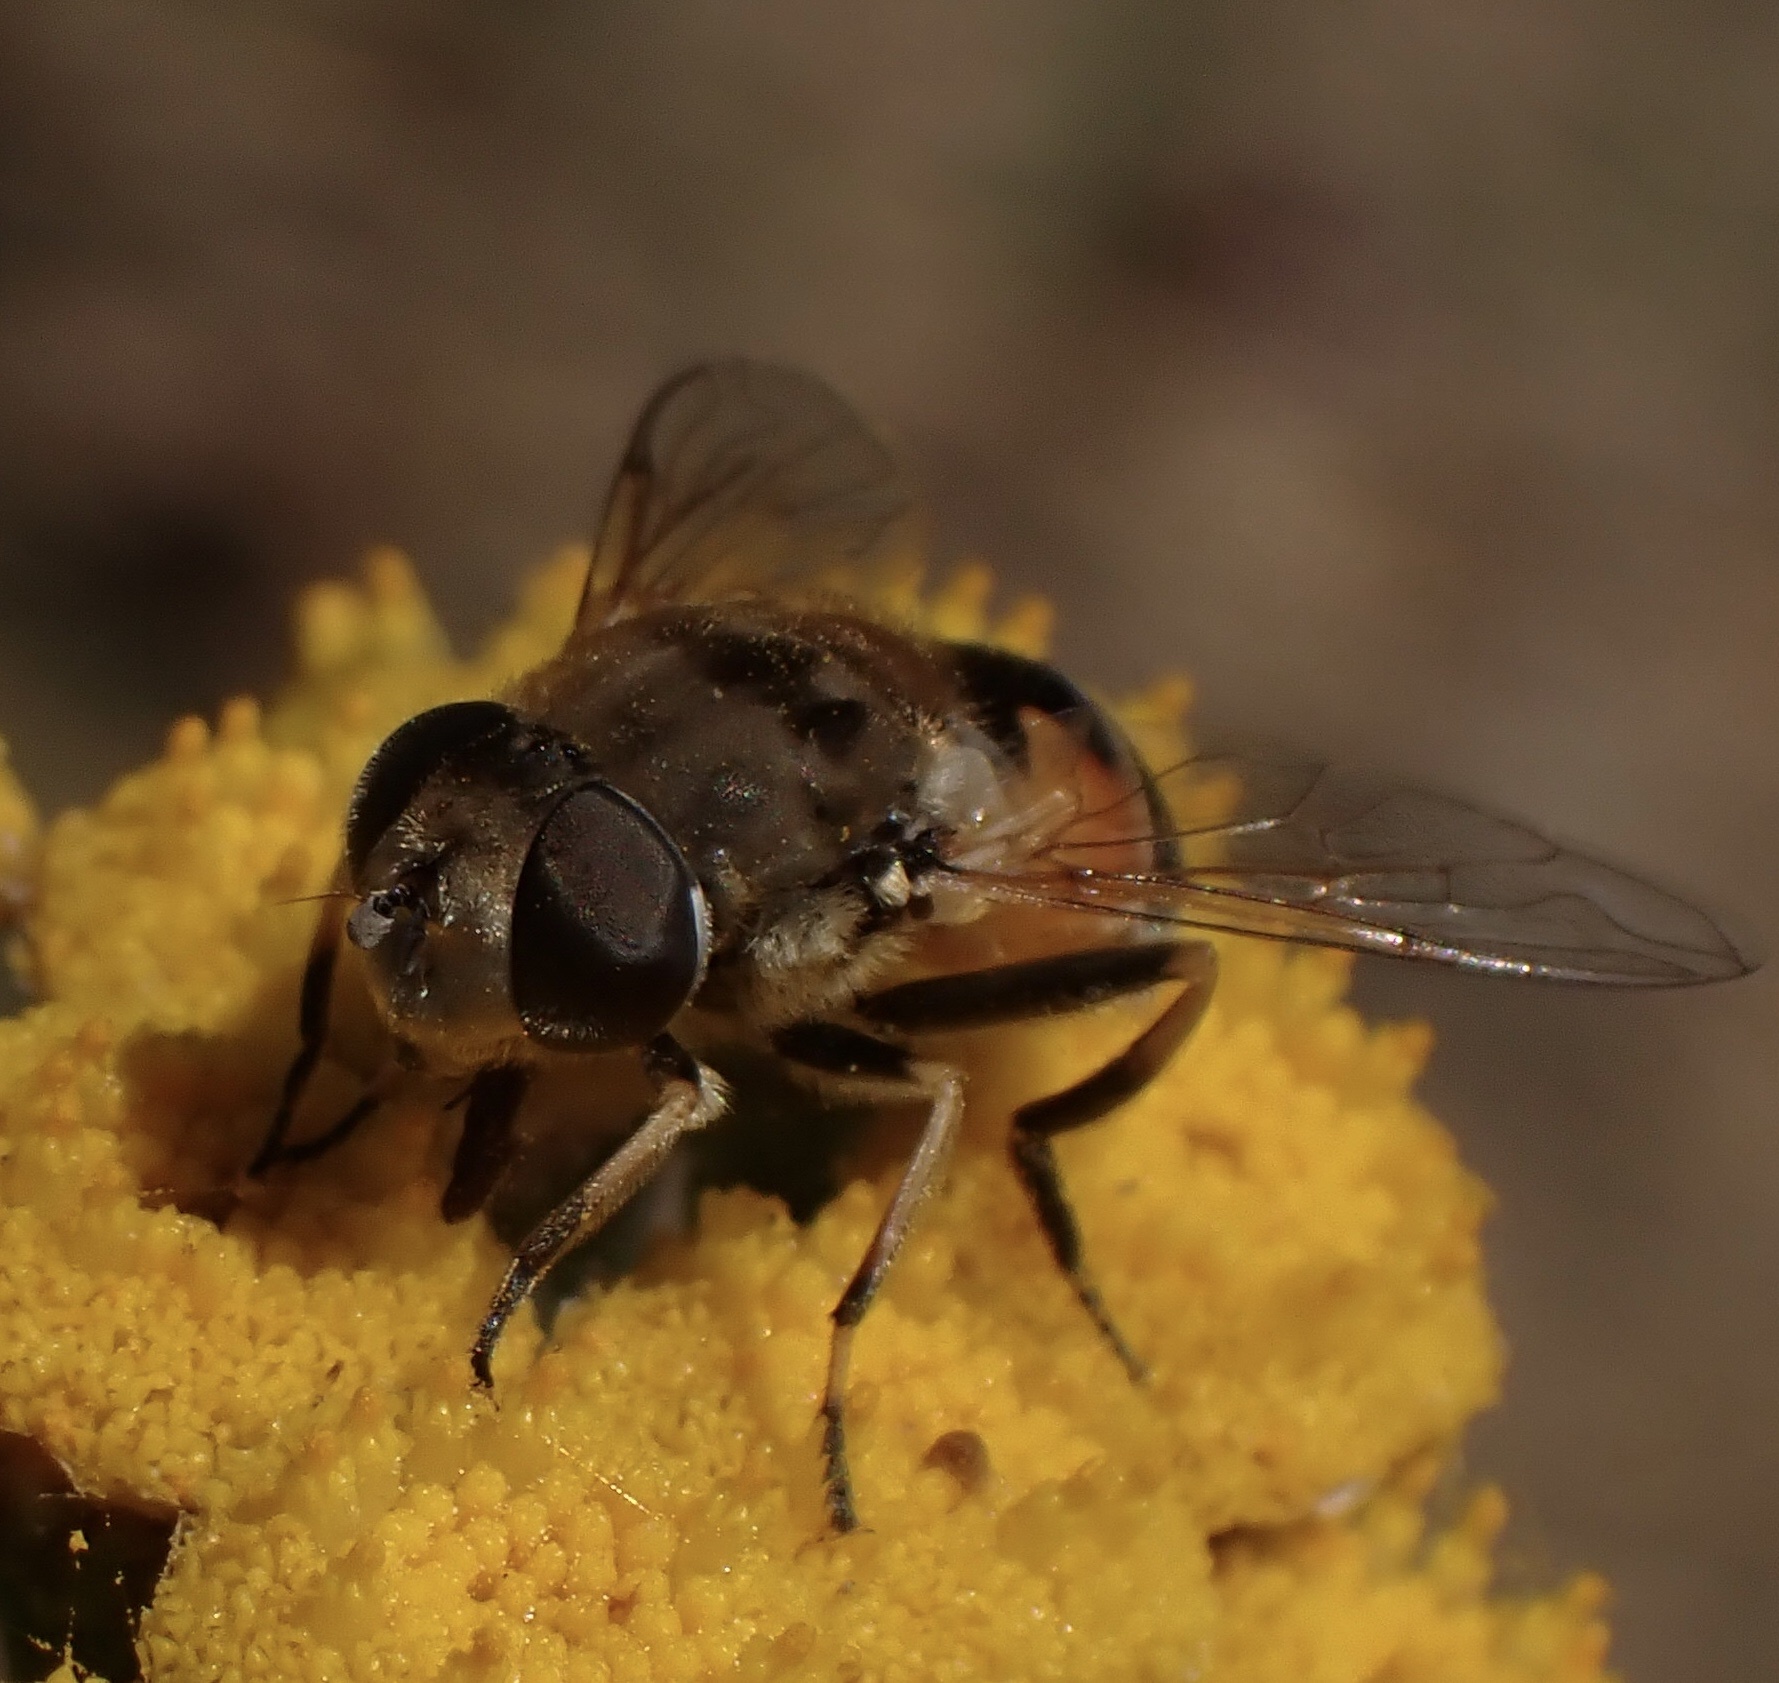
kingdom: Animalia
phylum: Arthropoda
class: Insecta
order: Diptera
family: Syrphidae
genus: Eristalis
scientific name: Eristalis arbustorum
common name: Hover fly
